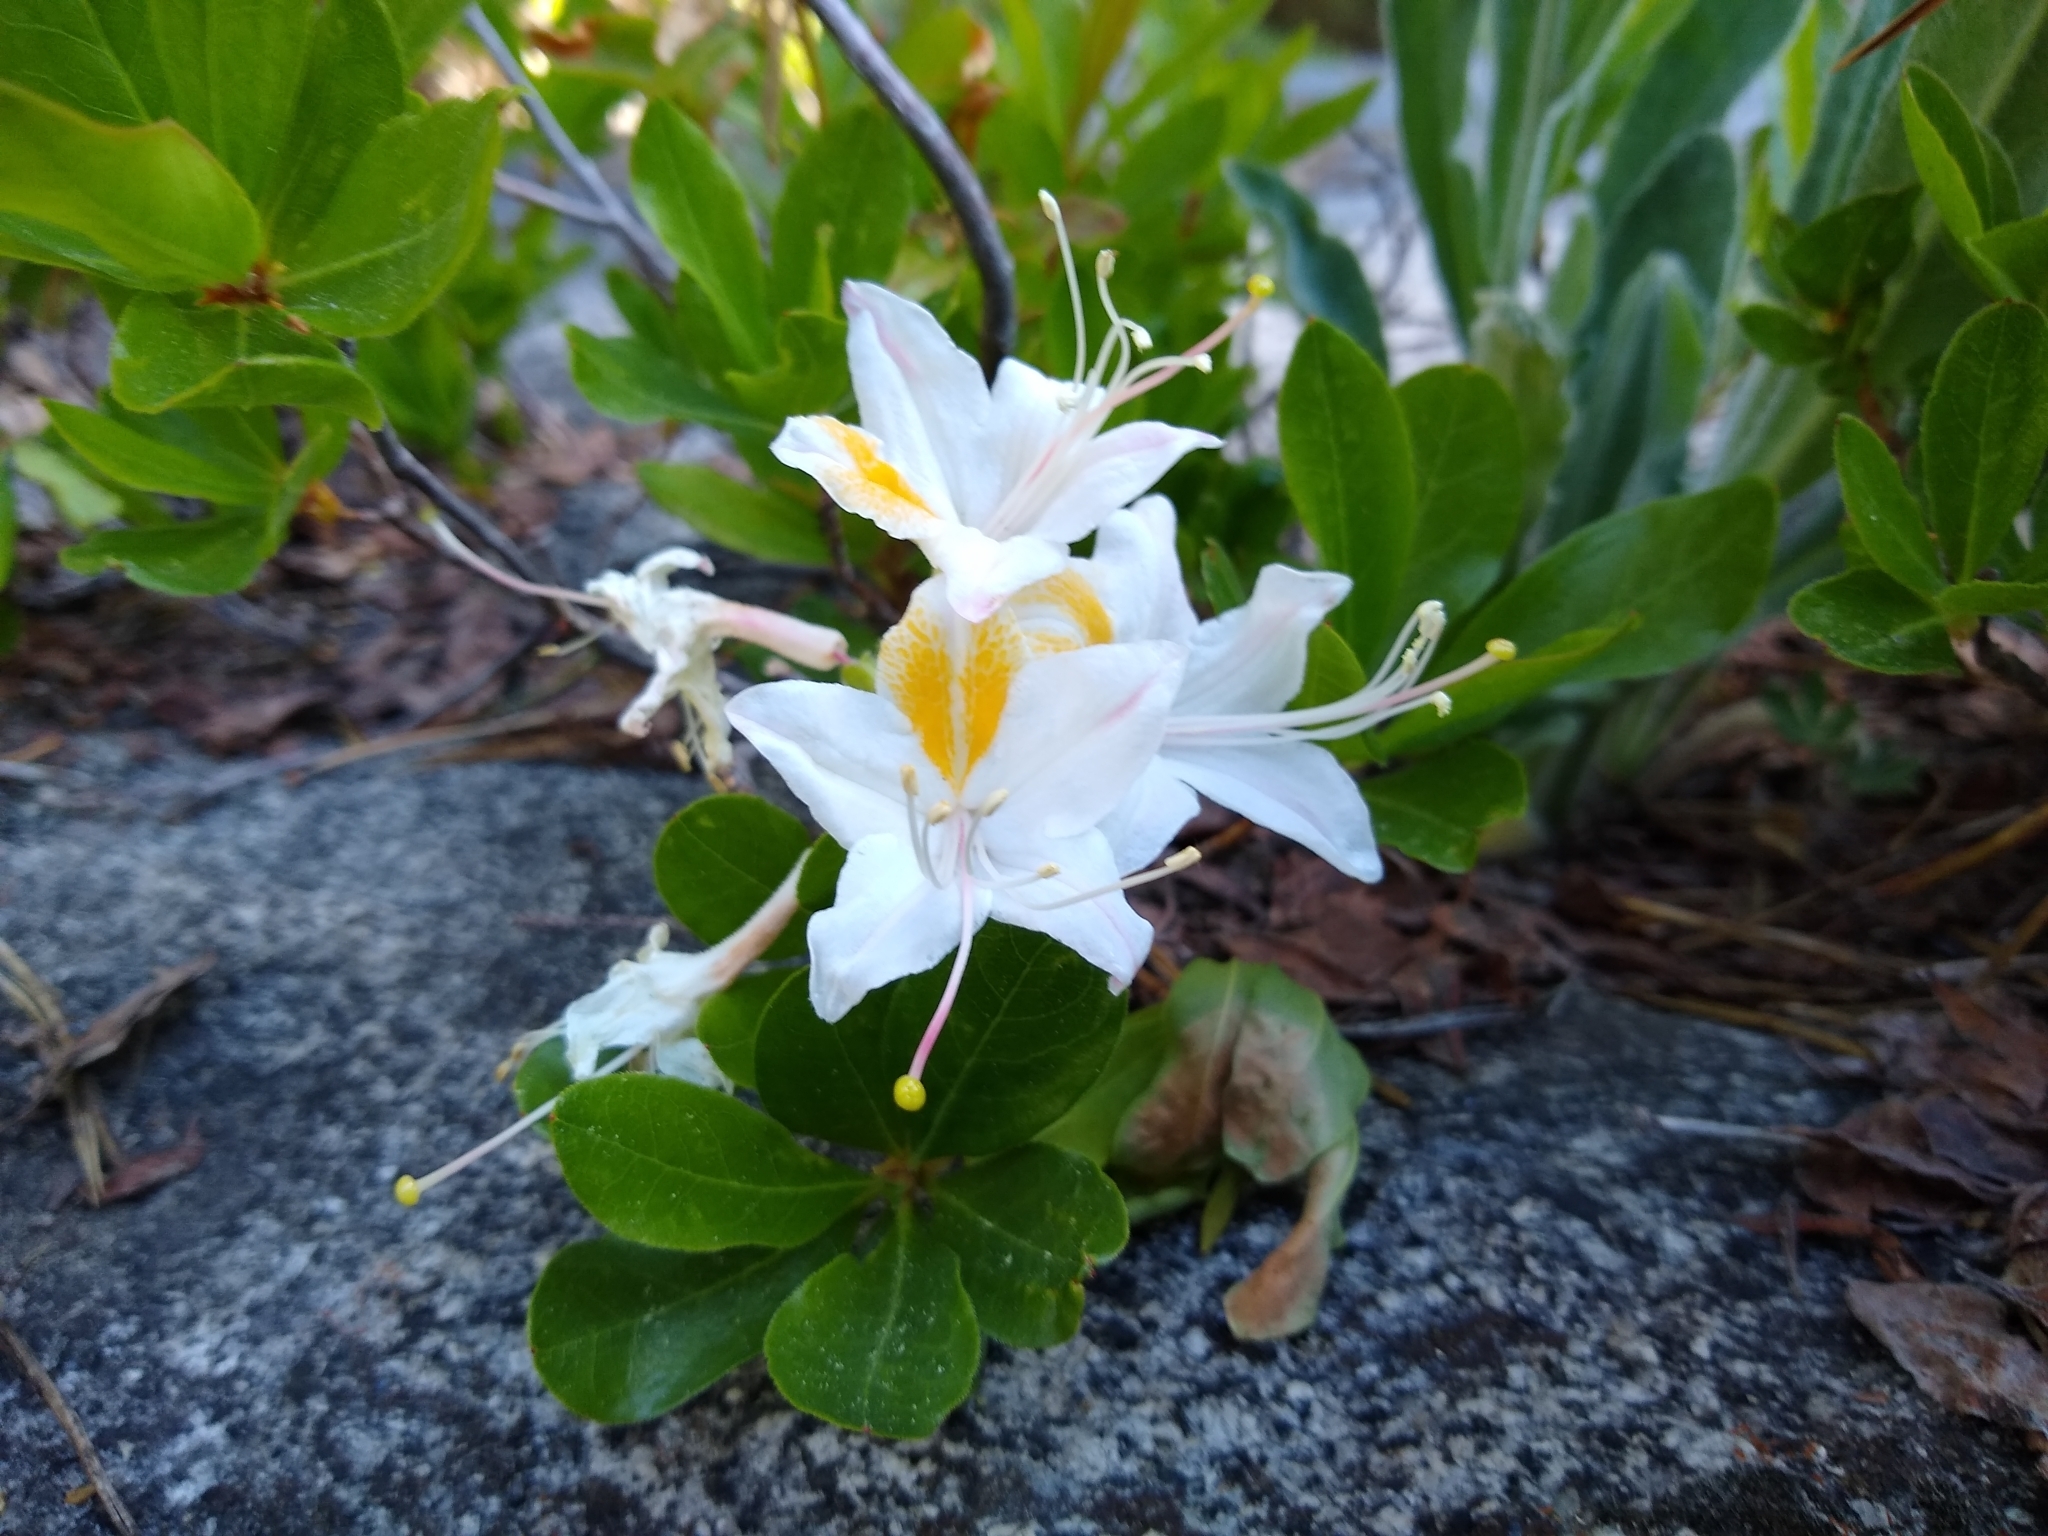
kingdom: Plantae
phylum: Tracheophyta
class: Magnoliopsida
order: Ericales
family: Ericaceae
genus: Rhododendron
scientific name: Rhododendron occidentale
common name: Western azalea
